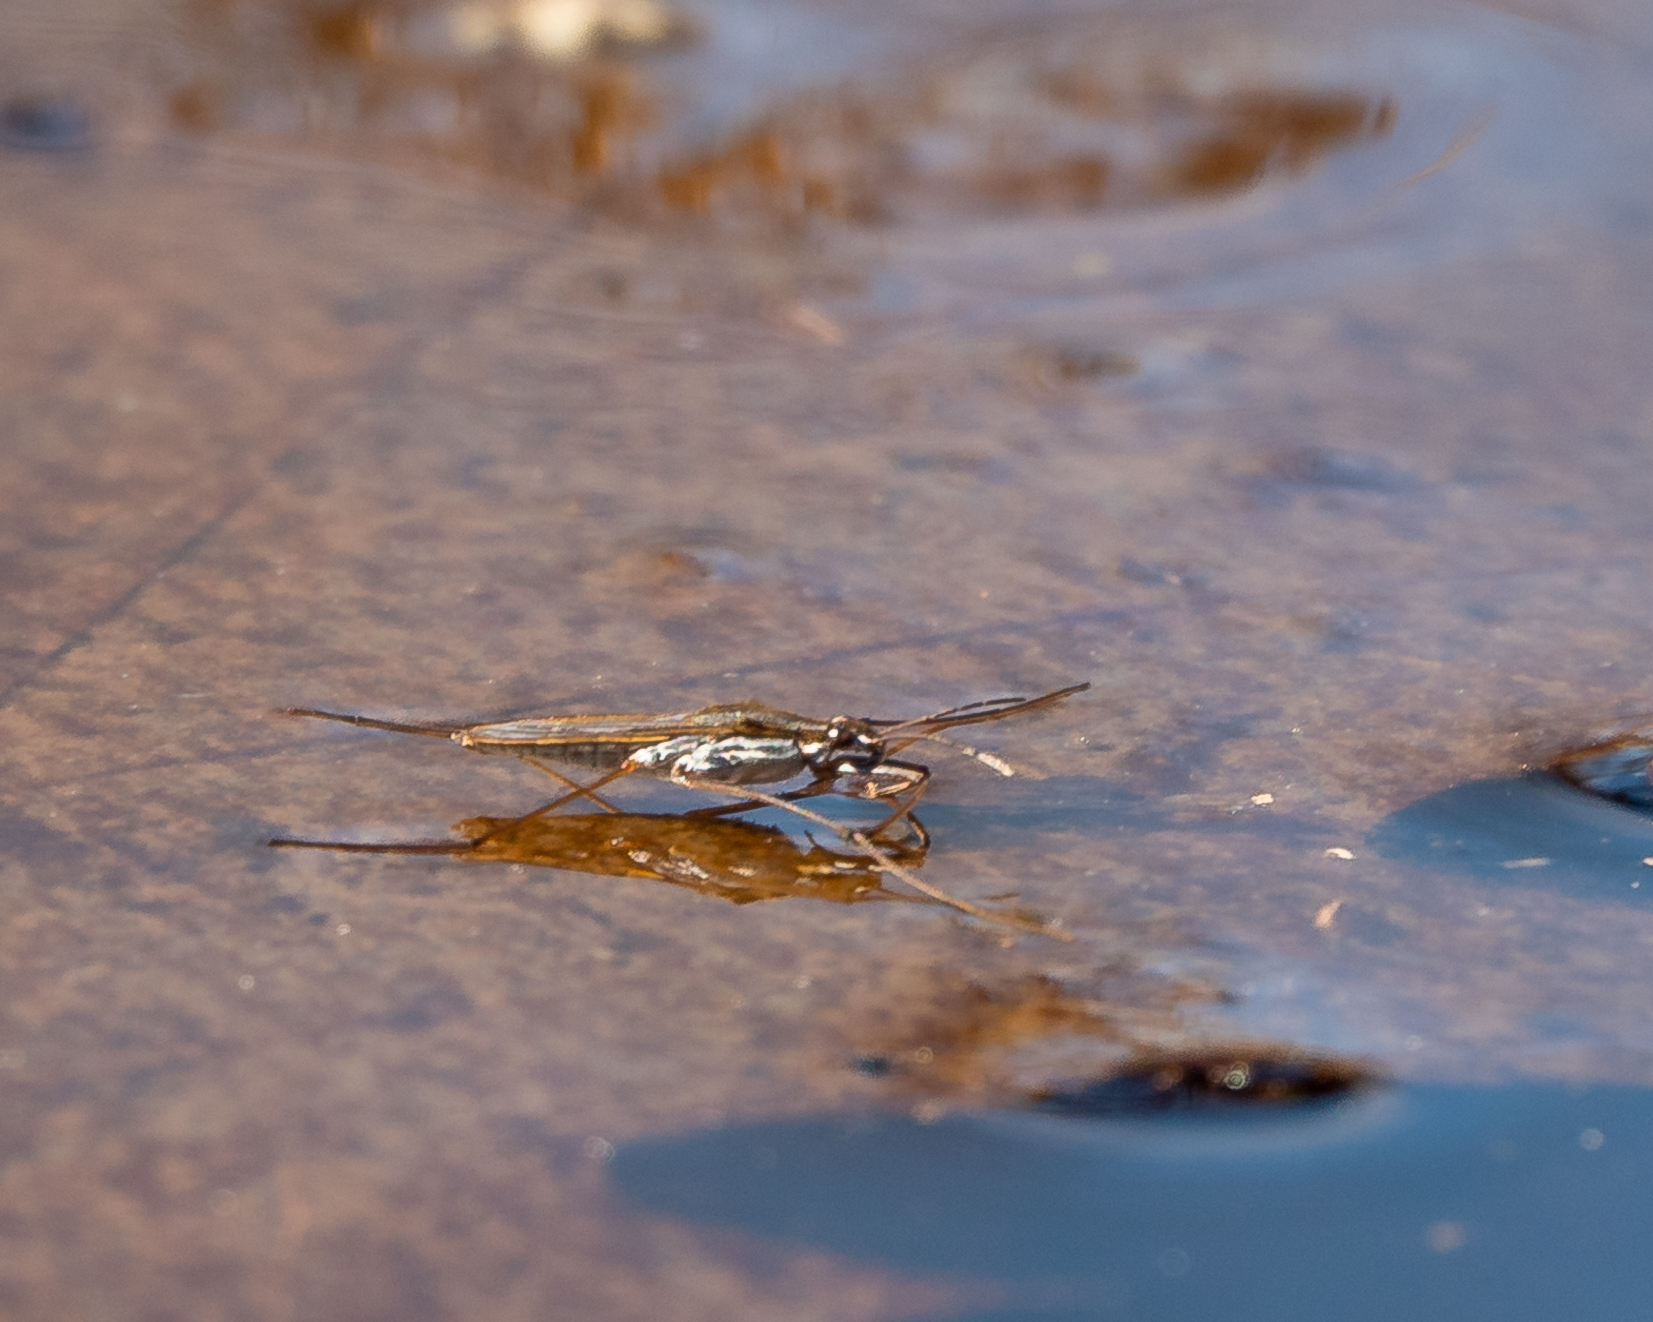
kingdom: Animalia
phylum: Arthropoda
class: Insecta
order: Hemiptera
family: Gerridae
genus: Gerris
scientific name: Gerris
